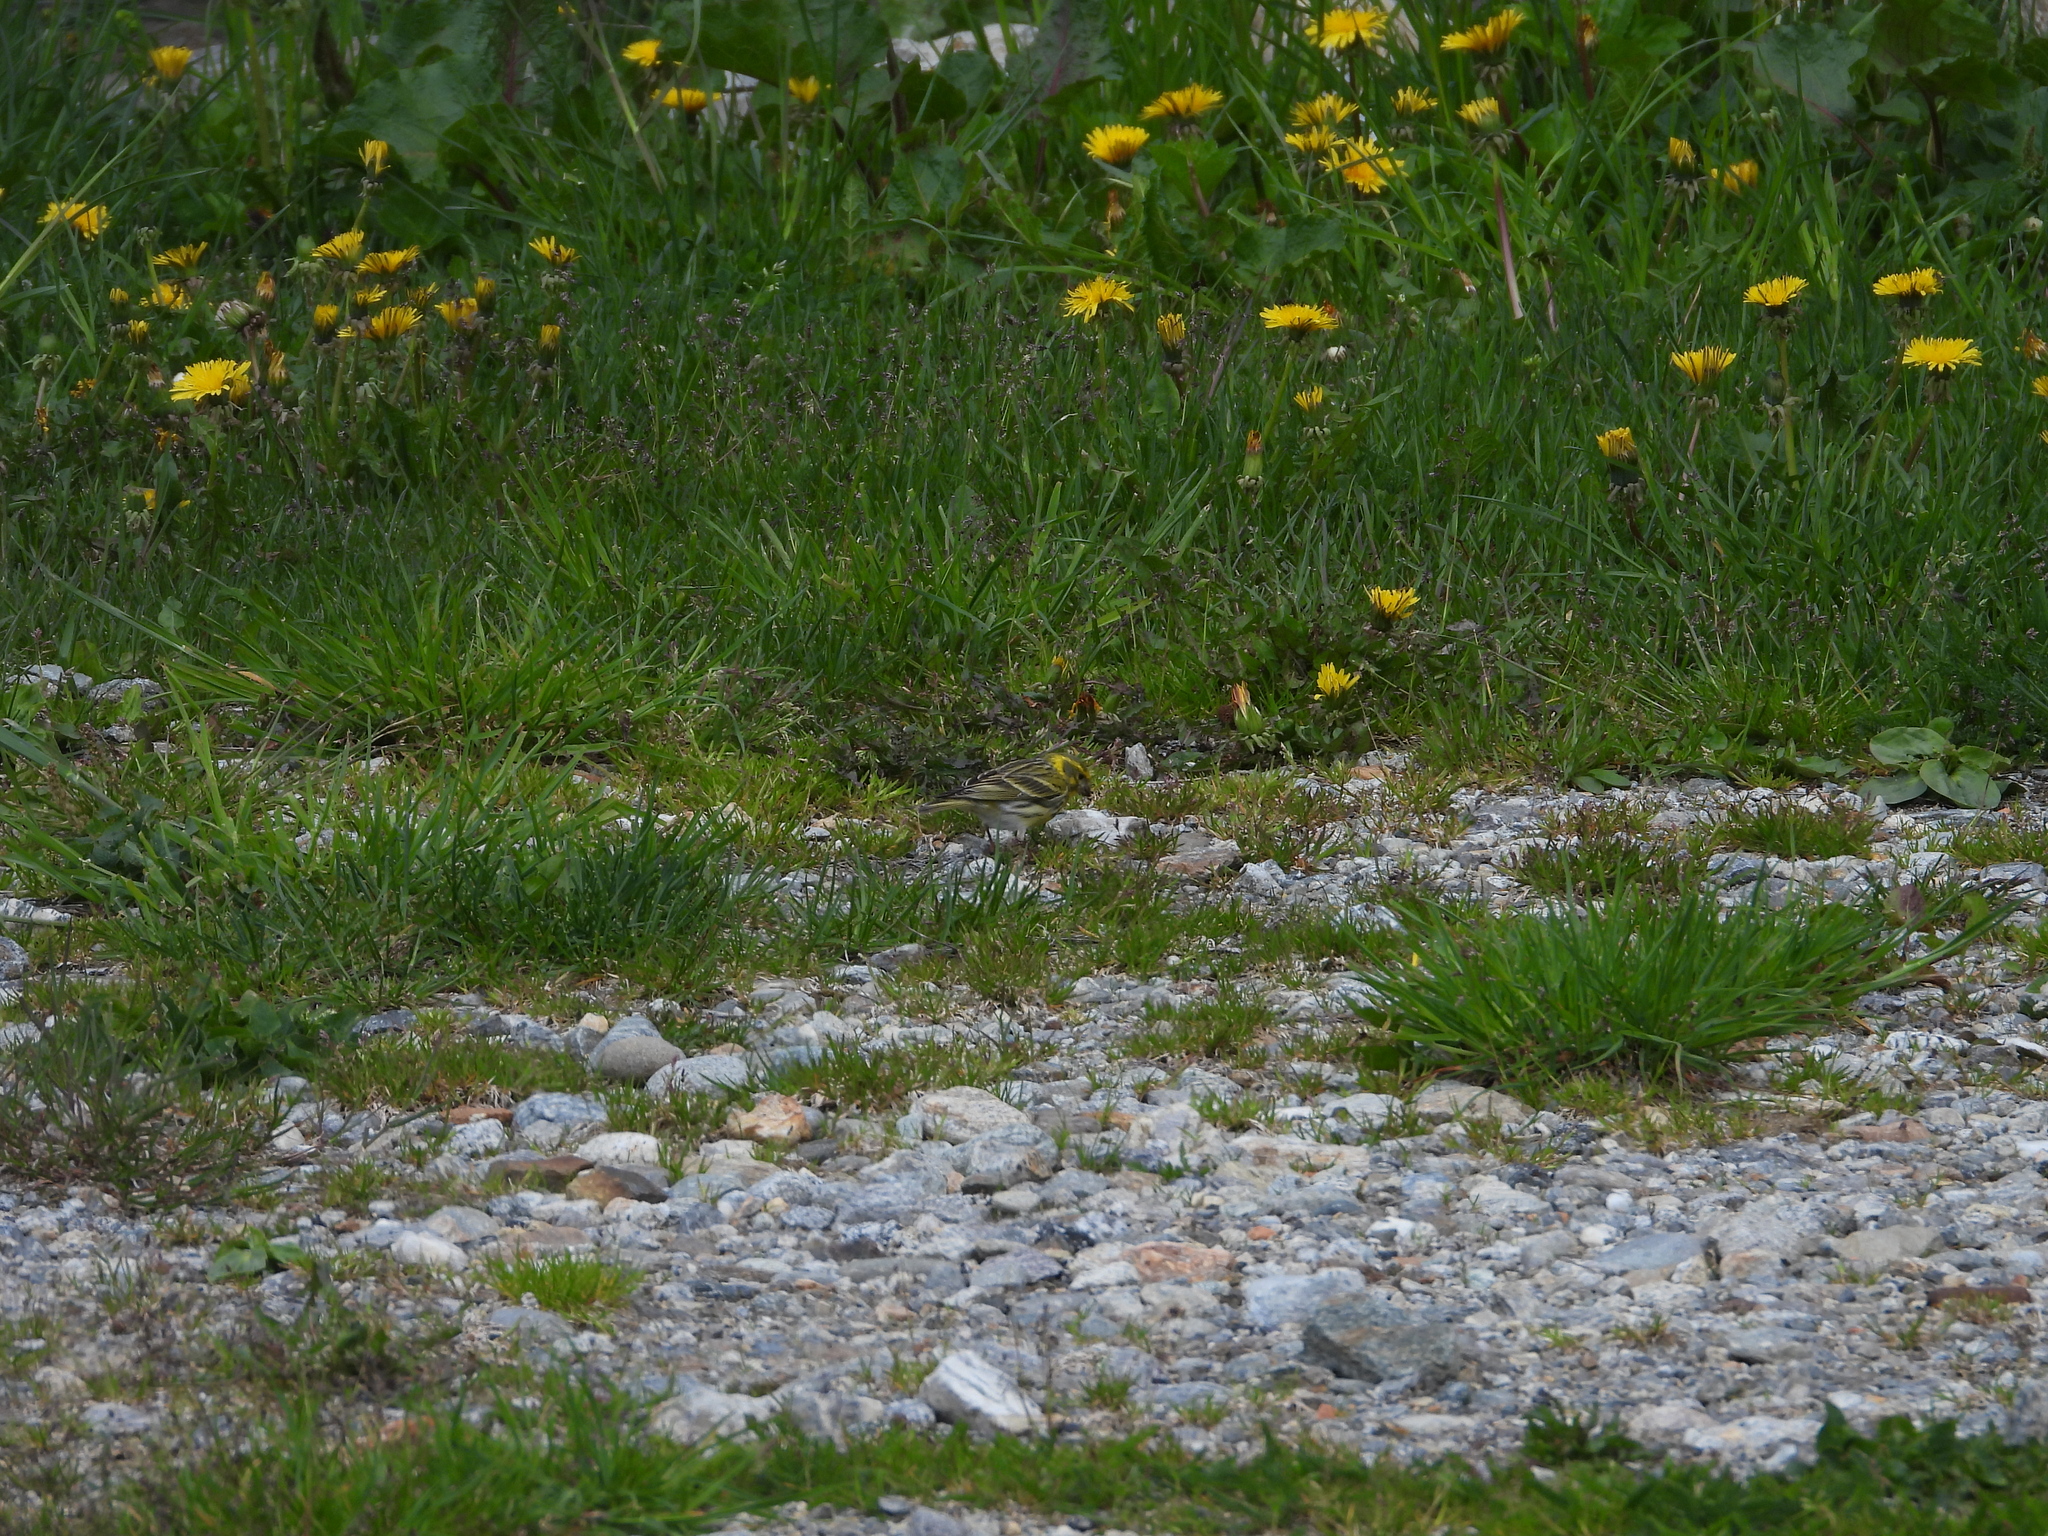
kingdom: Animalia
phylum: Chordata
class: Aves
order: Passeriformes
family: Fringillidae
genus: Serinus
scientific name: Serinus serinus
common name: European serin
